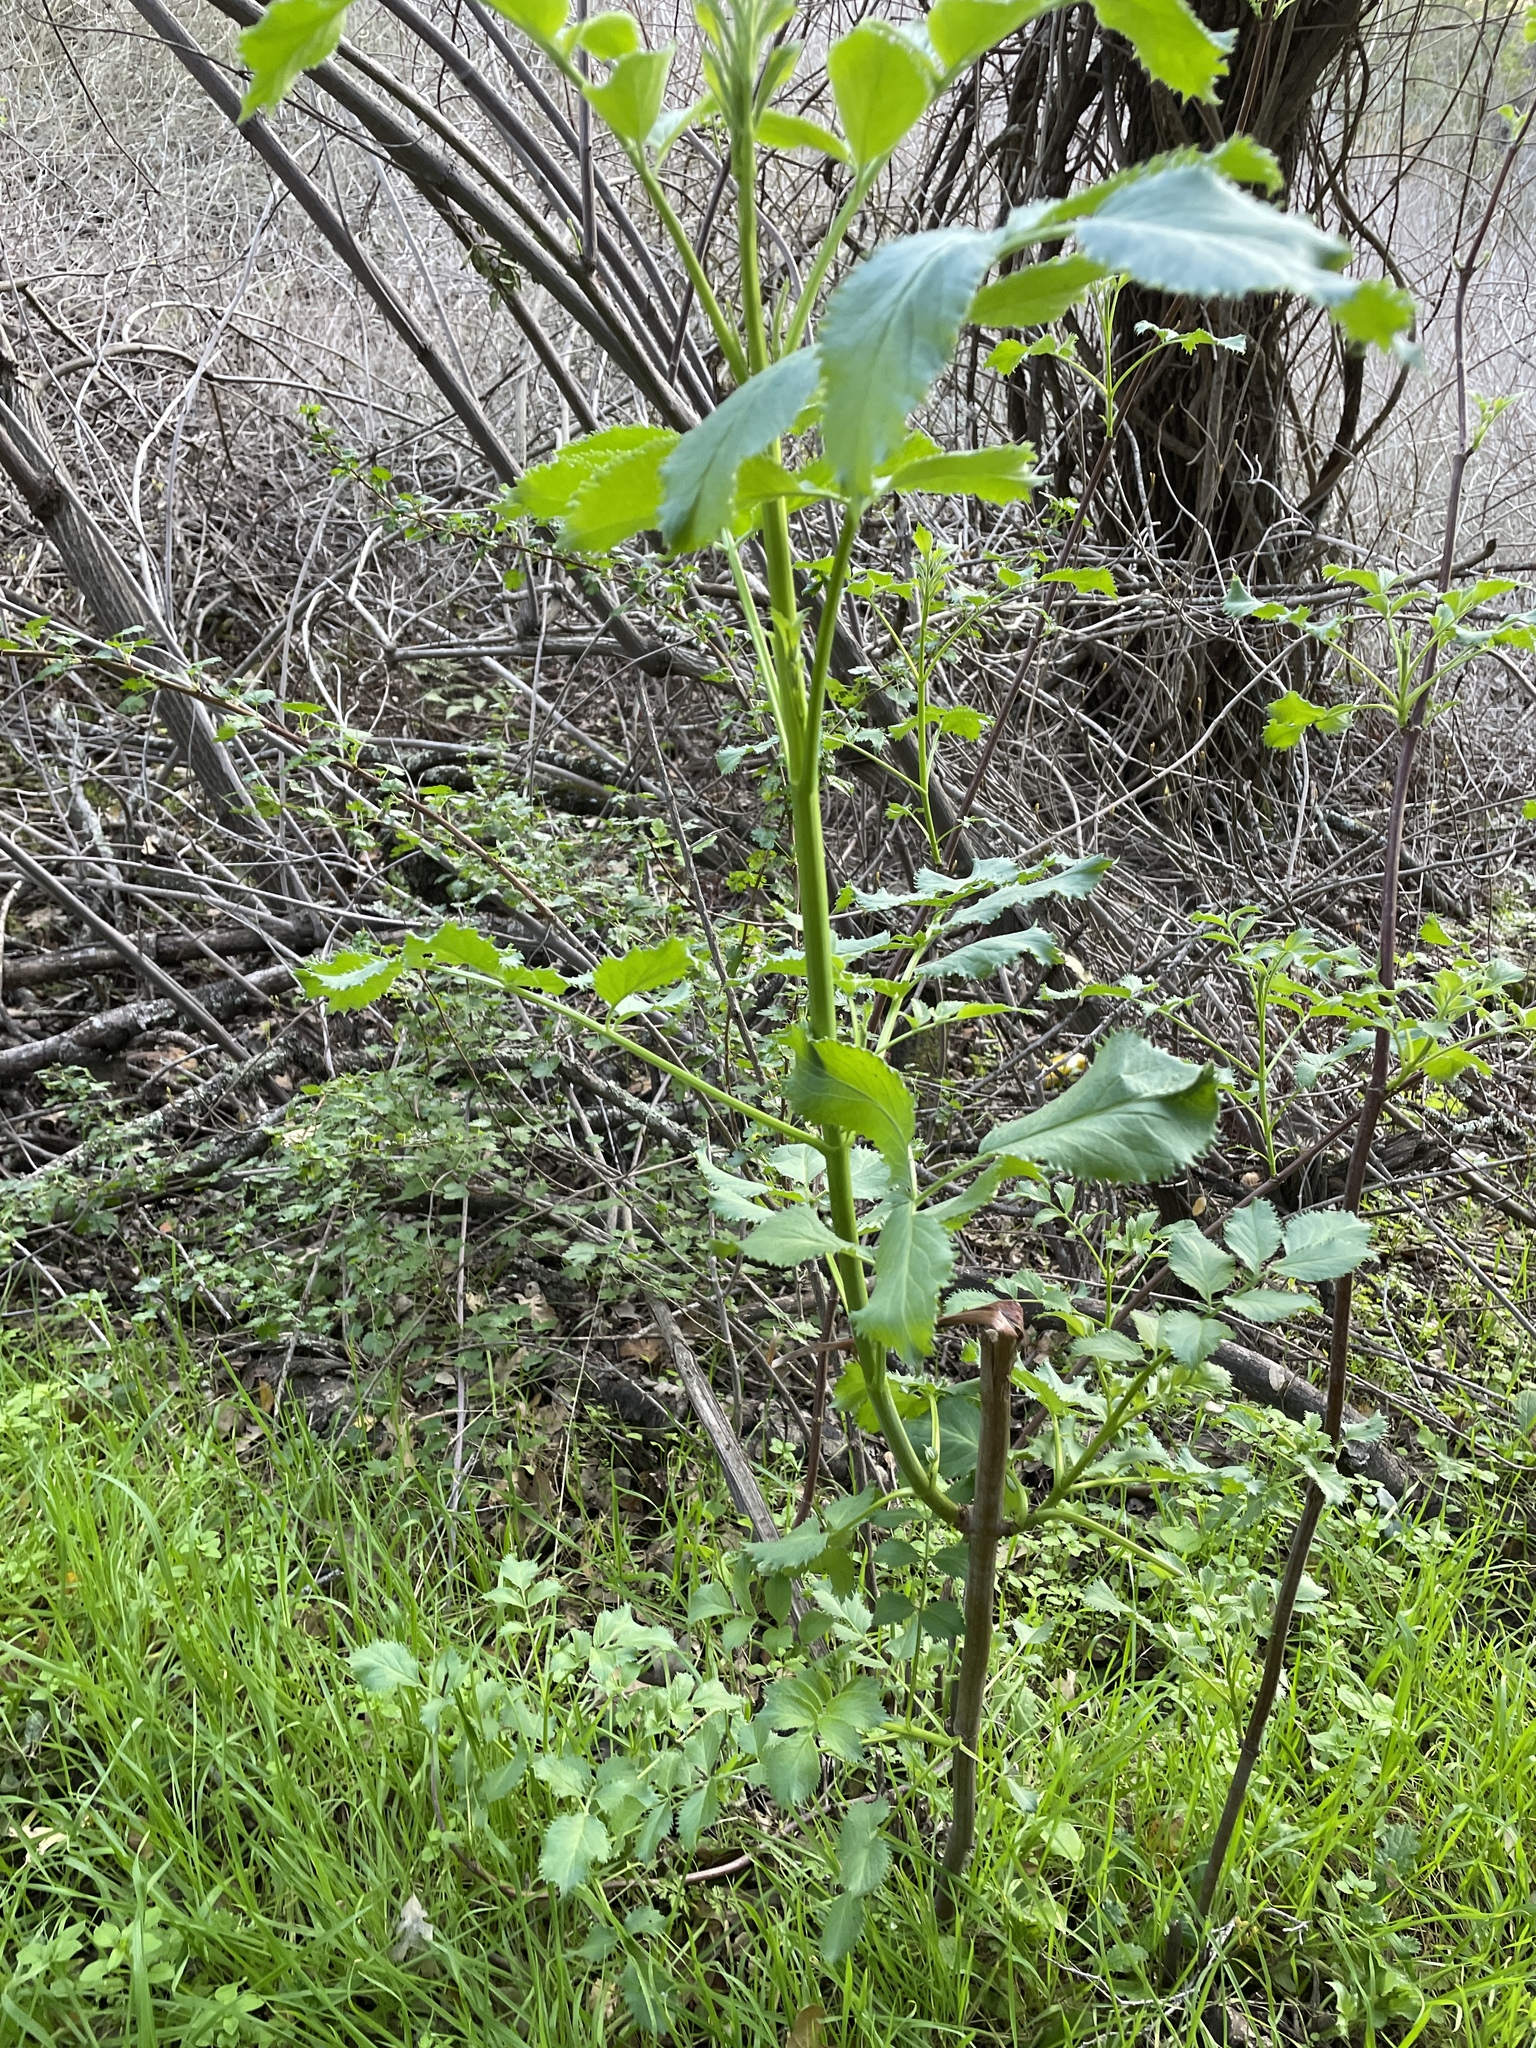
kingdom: Plantae
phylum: Tracheophyta
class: Magnoliopsida
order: Dipsacales
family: Viburnaceae
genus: Sambucus
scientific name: Sambucus cerulea
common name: Blue elder
